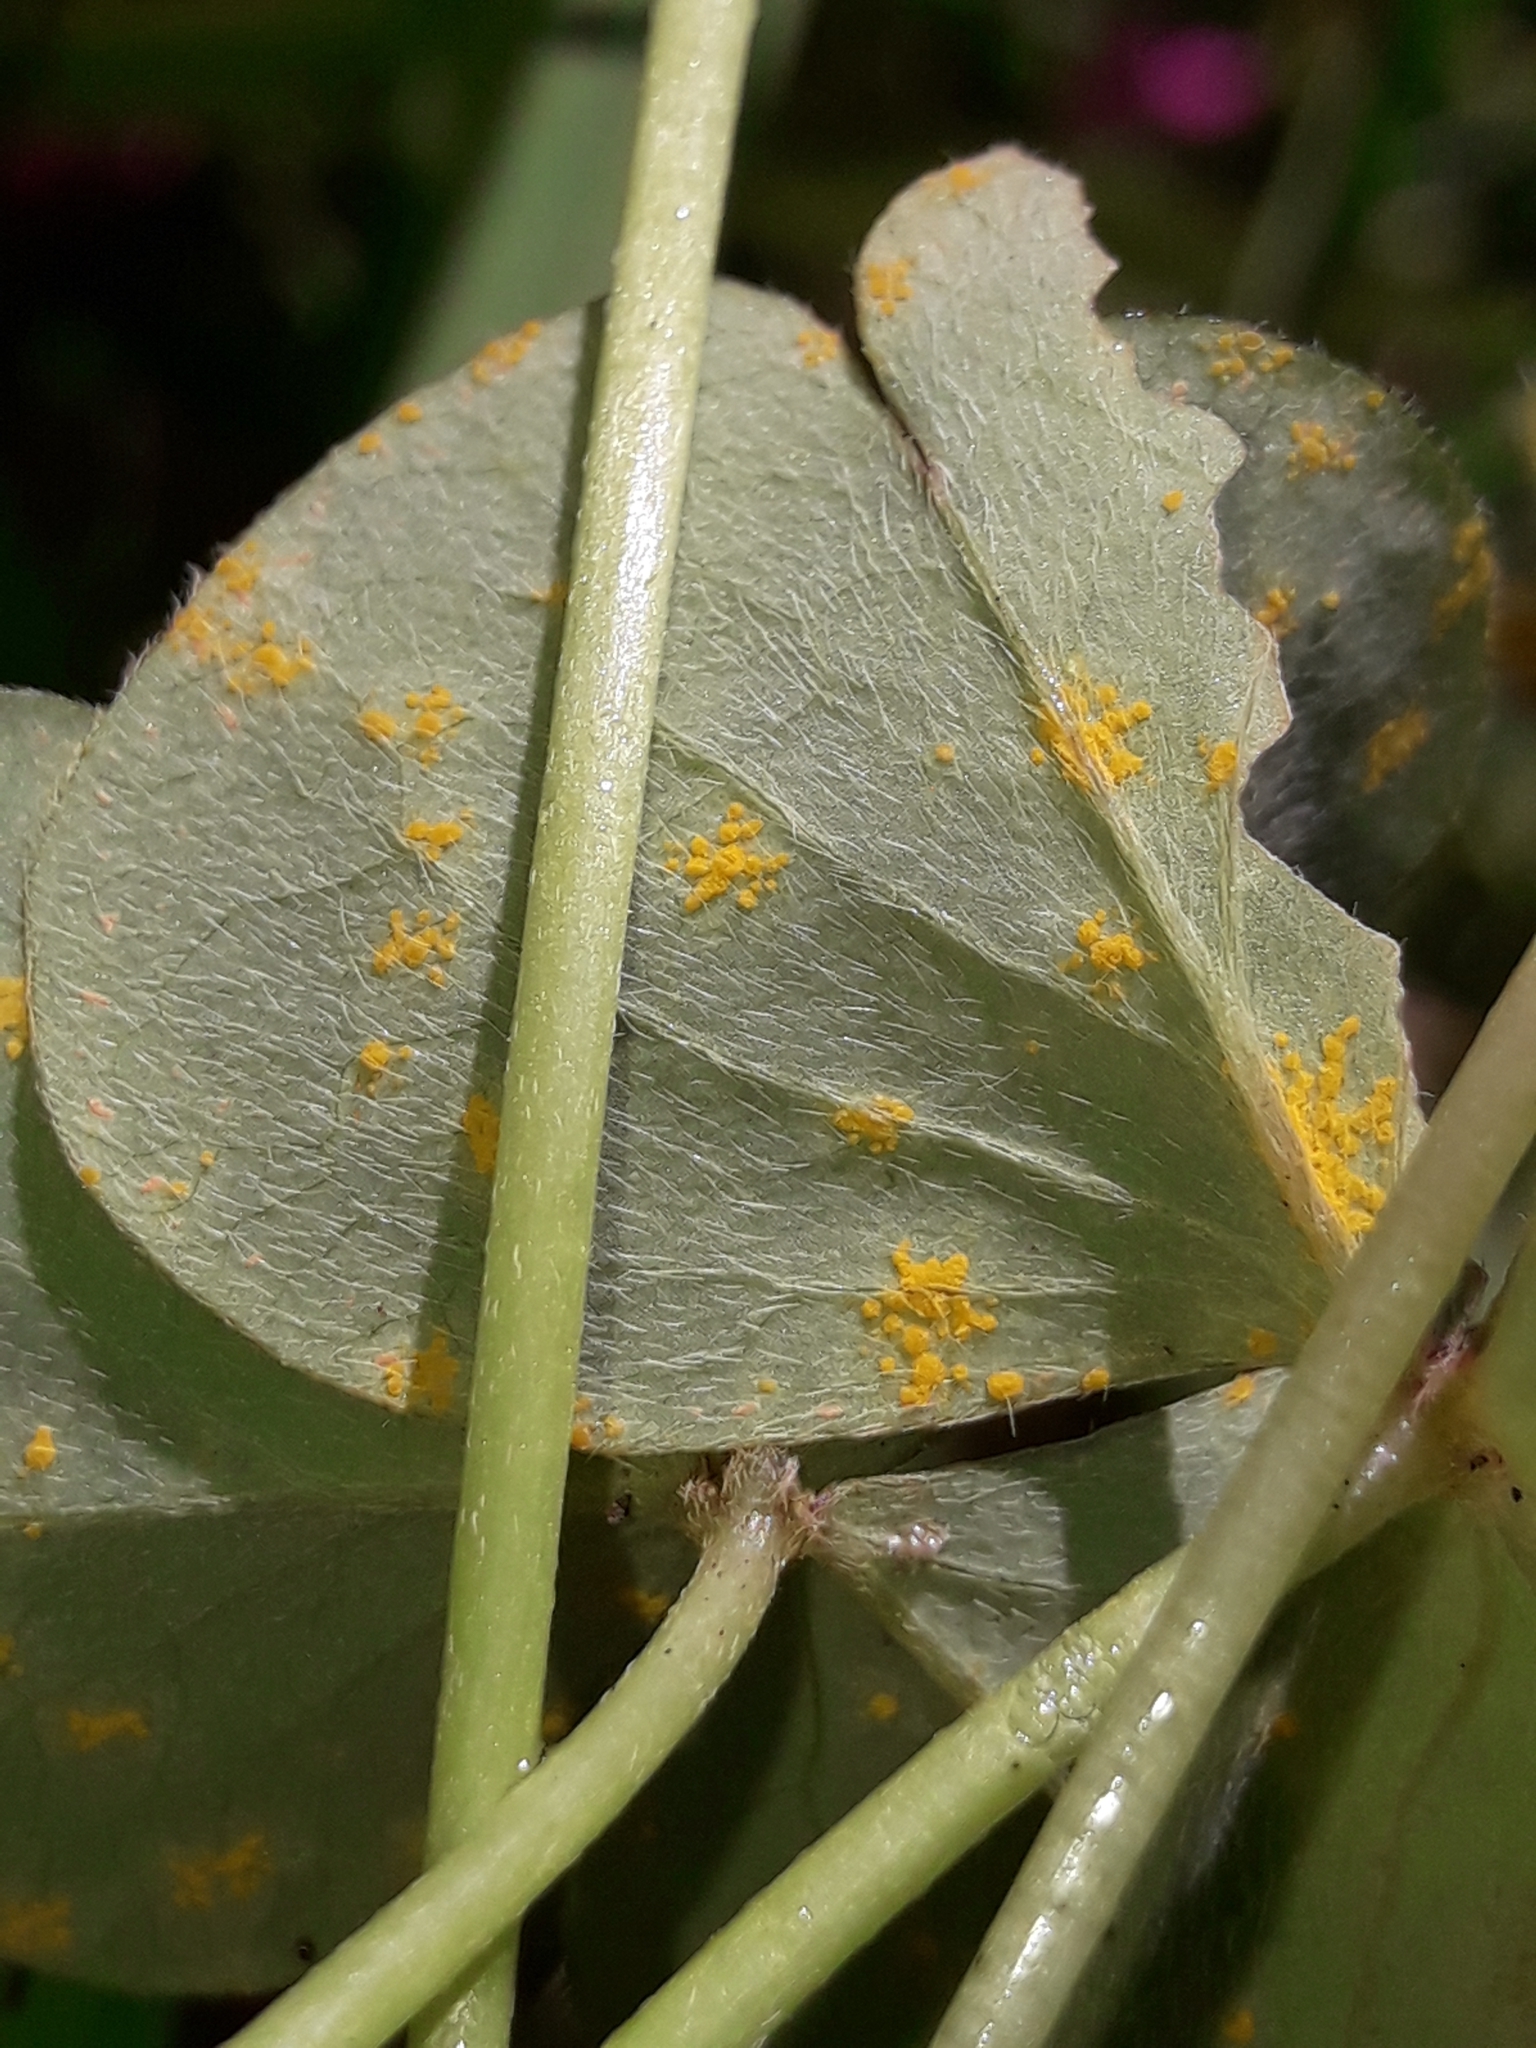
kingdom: Fungi
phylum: Basidiomycota
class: Pucciniomycetes
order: Pucciniales
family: Pucciniaceae
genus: Puccinia
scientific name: Puccinia oxalidis
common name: Oxalis rust
